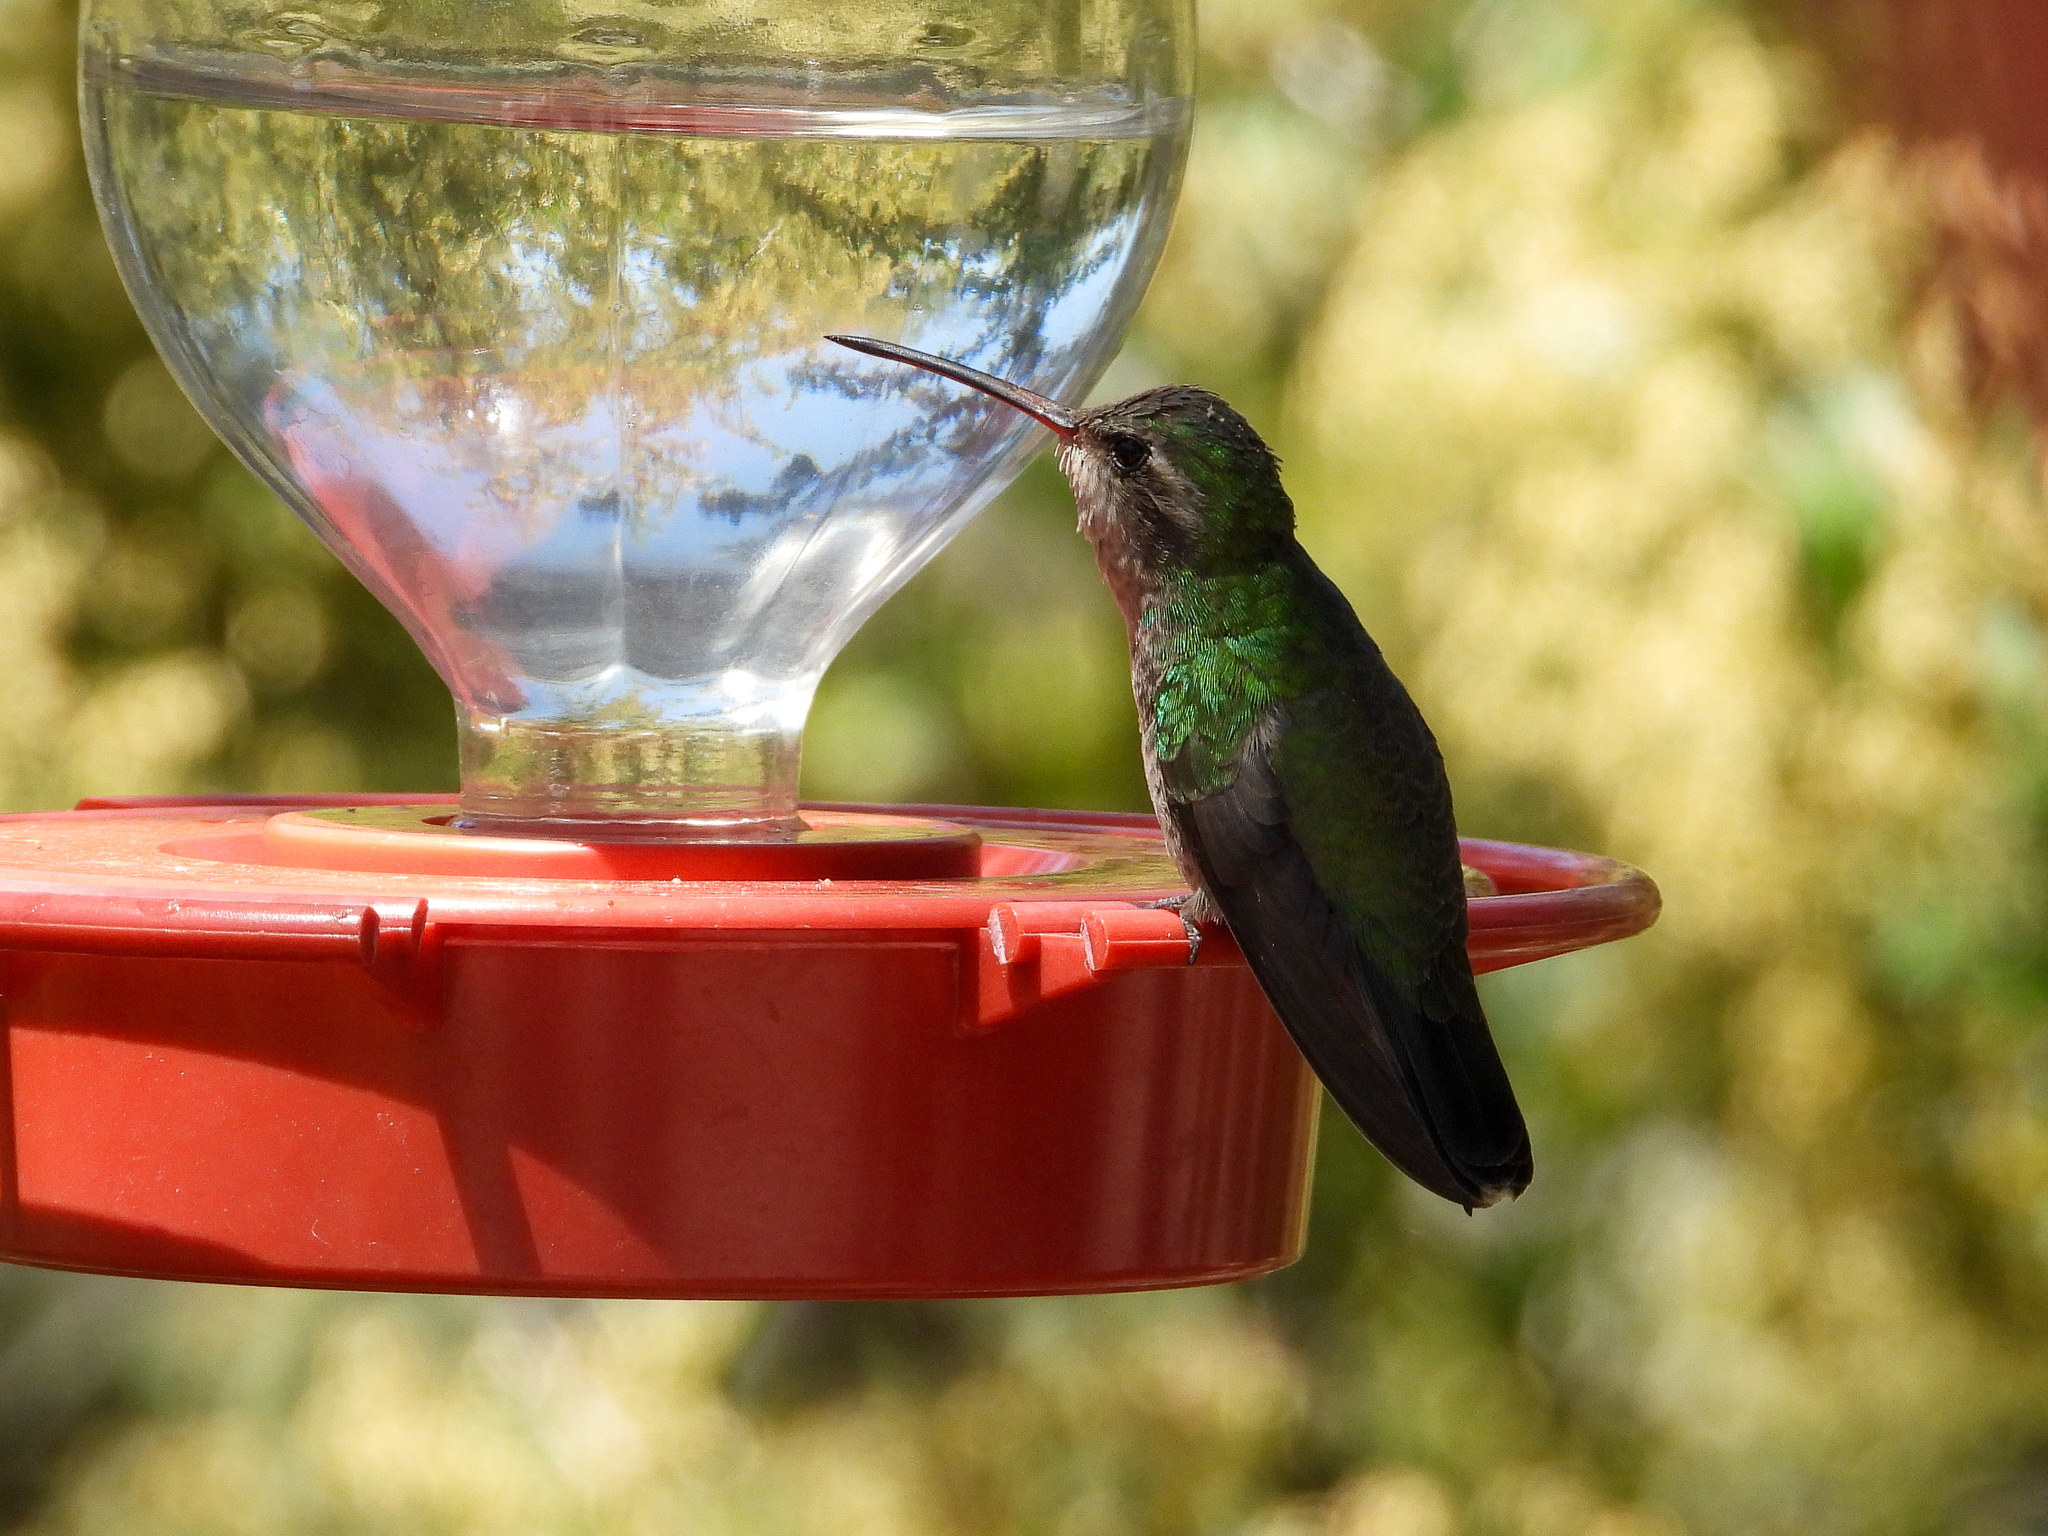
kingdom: Animalia
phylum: Chordata
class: Aves
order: Apodiformes
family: Trochilidae
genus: Cynanthus
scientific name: Cynanthus latirostris
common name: Broad-billed hummingbird
